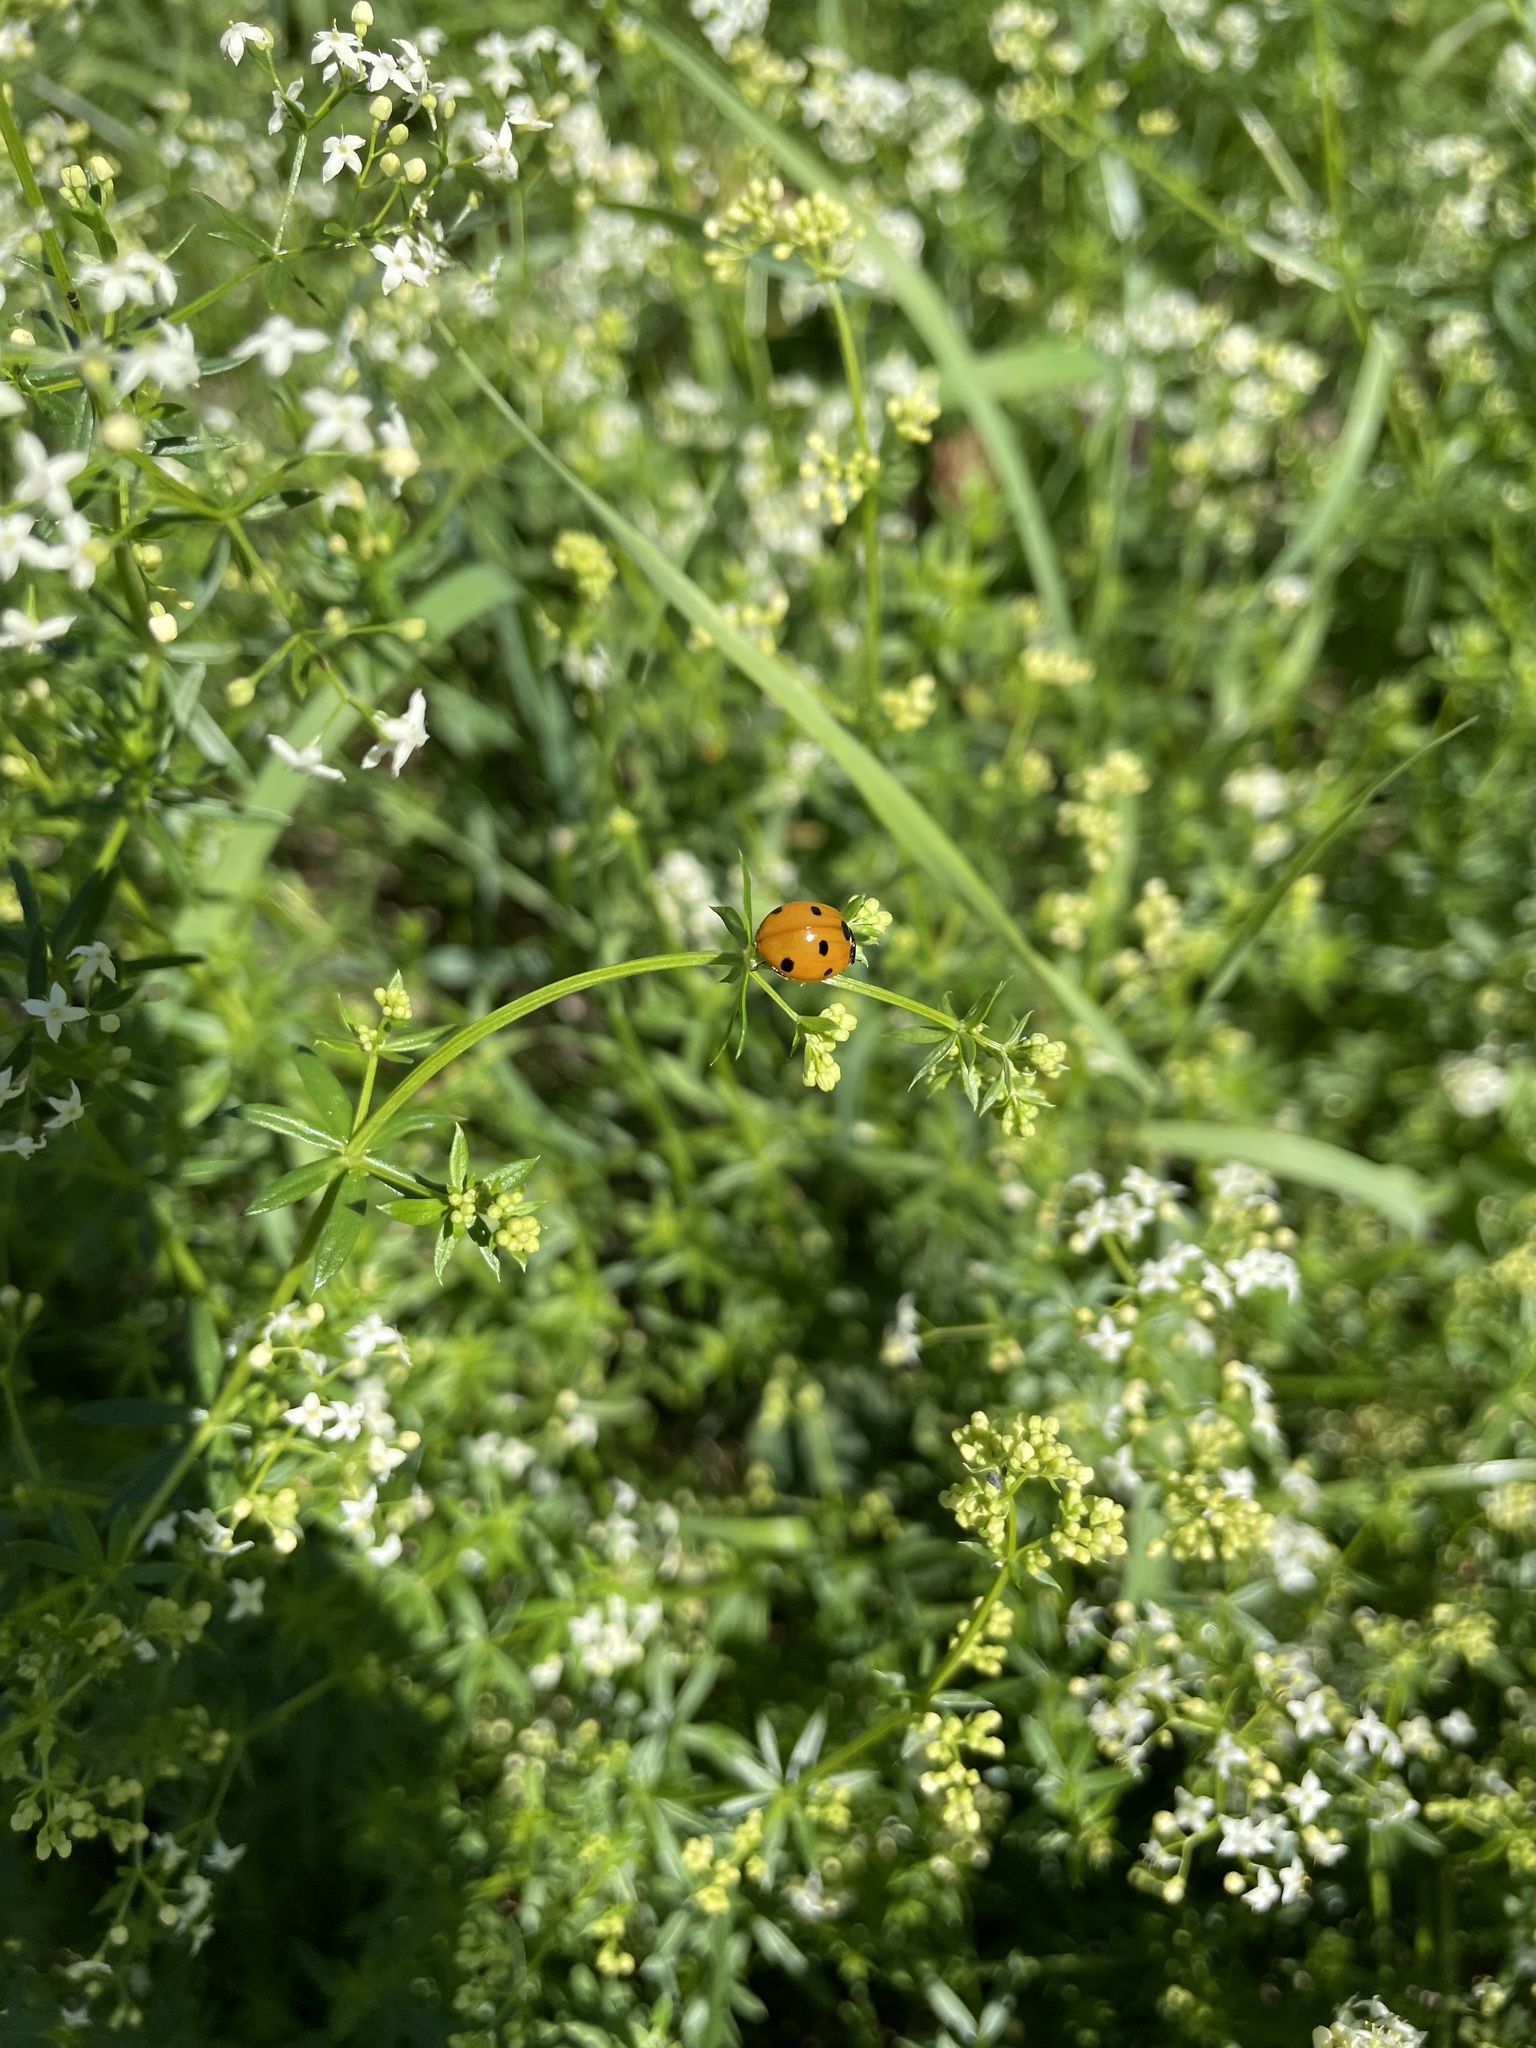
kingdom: Animalia
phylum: Arthropoda
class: Insecta
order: Coleoptera
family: Coccinellidae
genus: Coccinella
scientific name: Coccinella septempunctata
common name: Sevenspotted lady beetle
